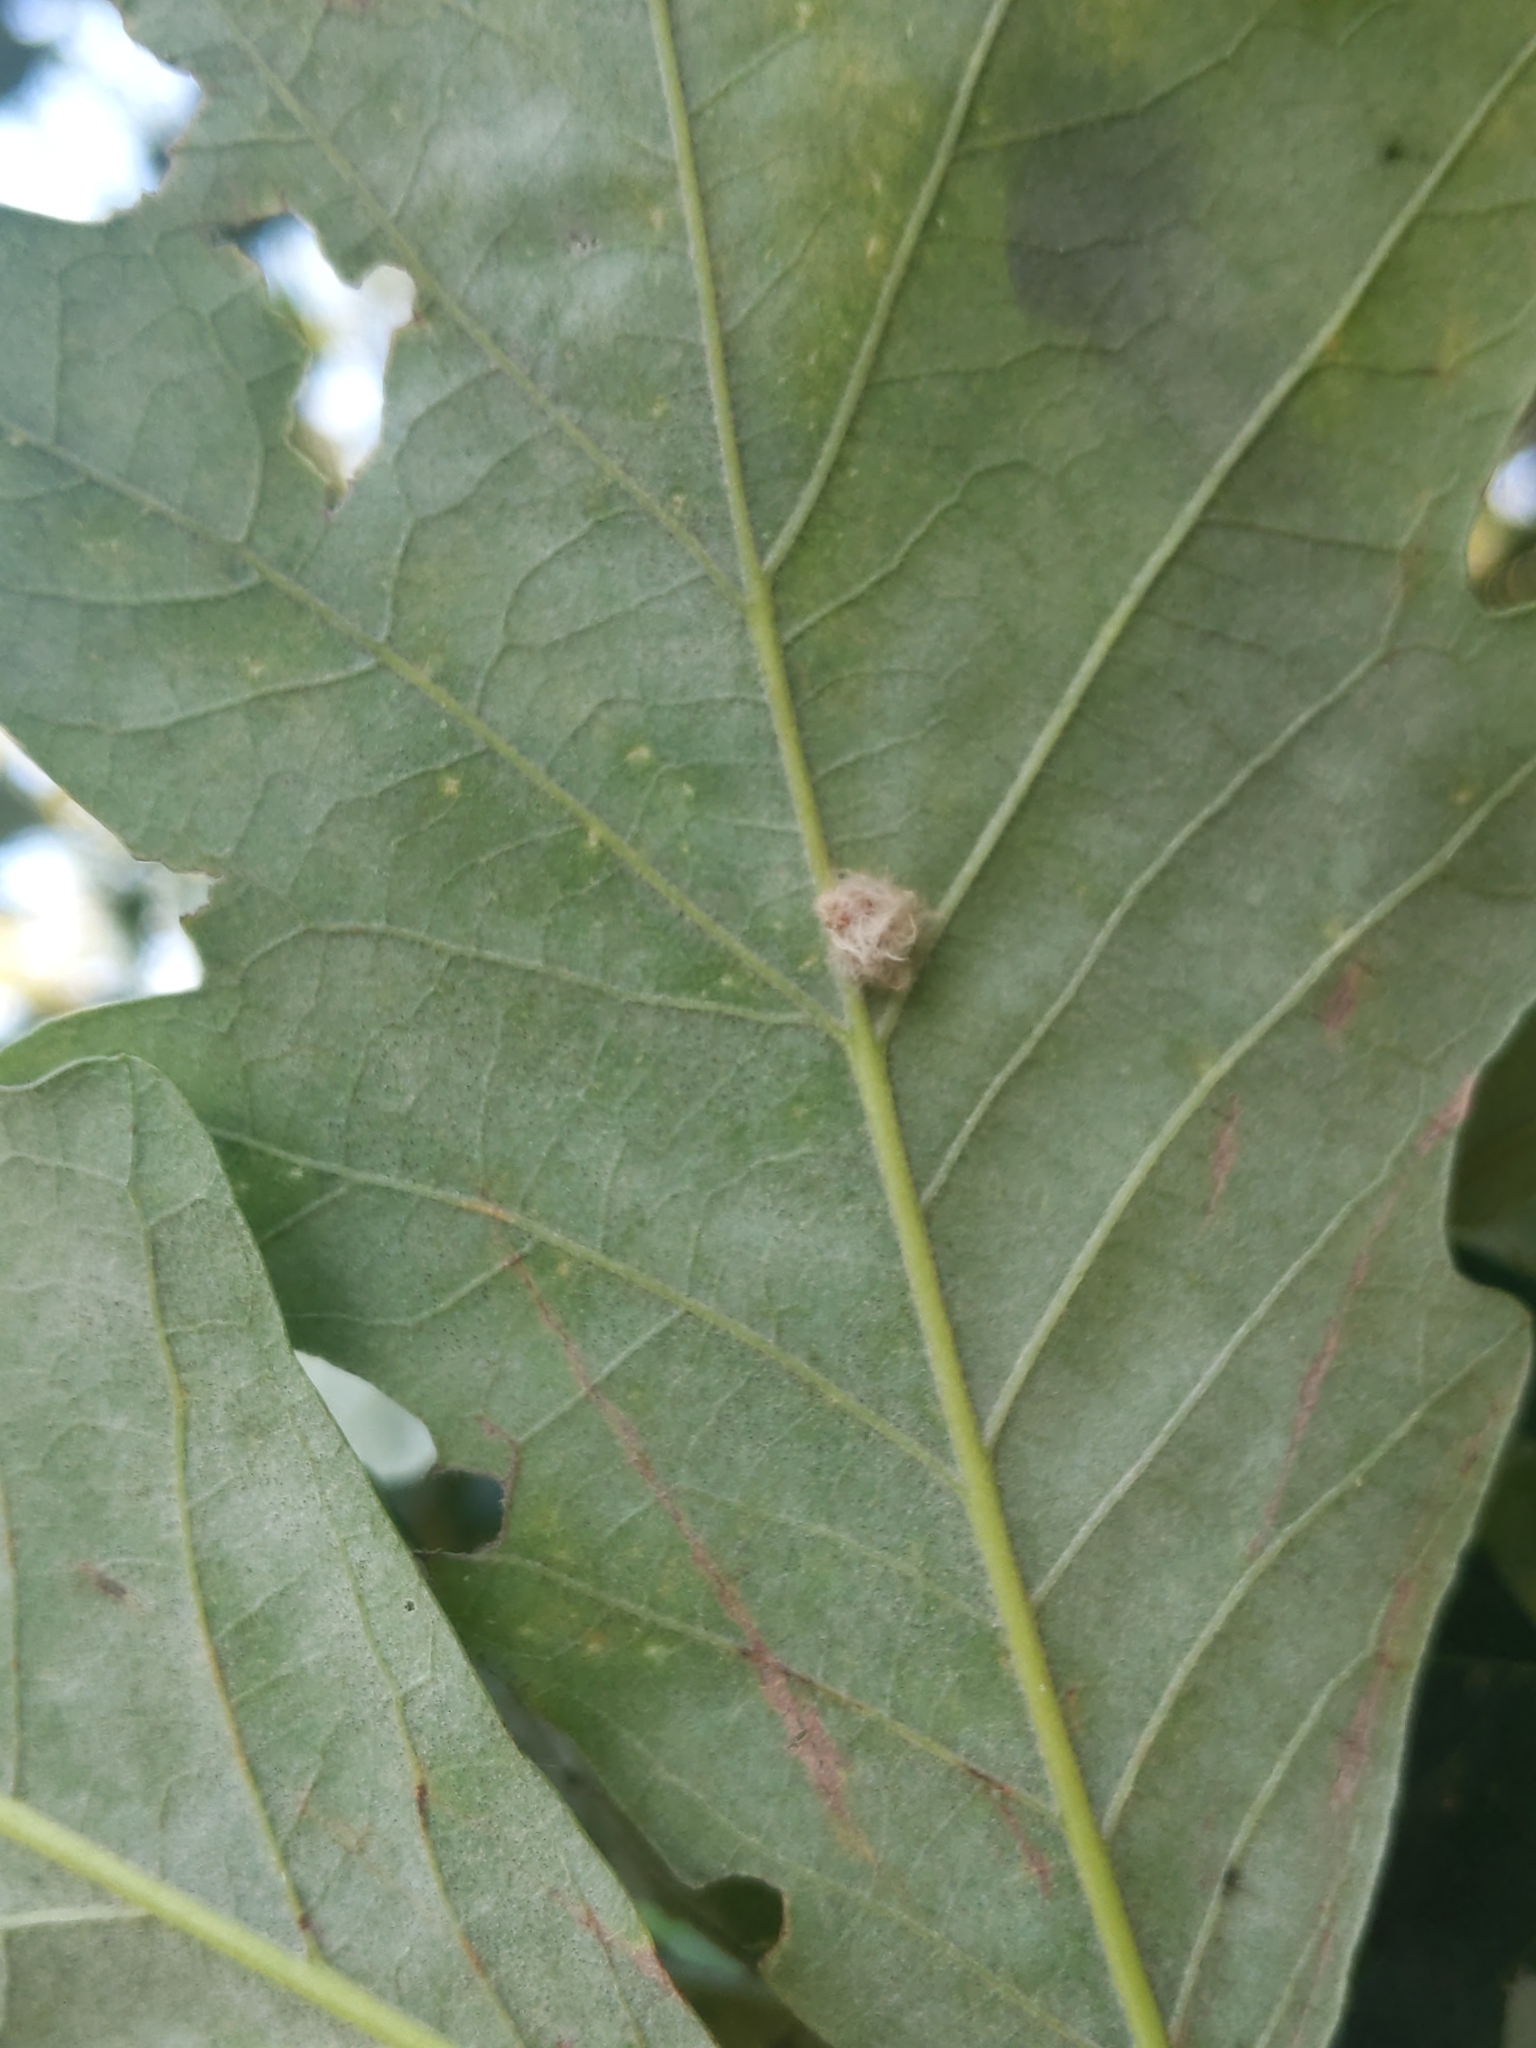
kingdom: Animalia
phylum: Arthropoda
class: Insecta
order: Hymenoptera
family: Cynipidae
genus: Andricus
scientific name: Andricus Druon ignotum
